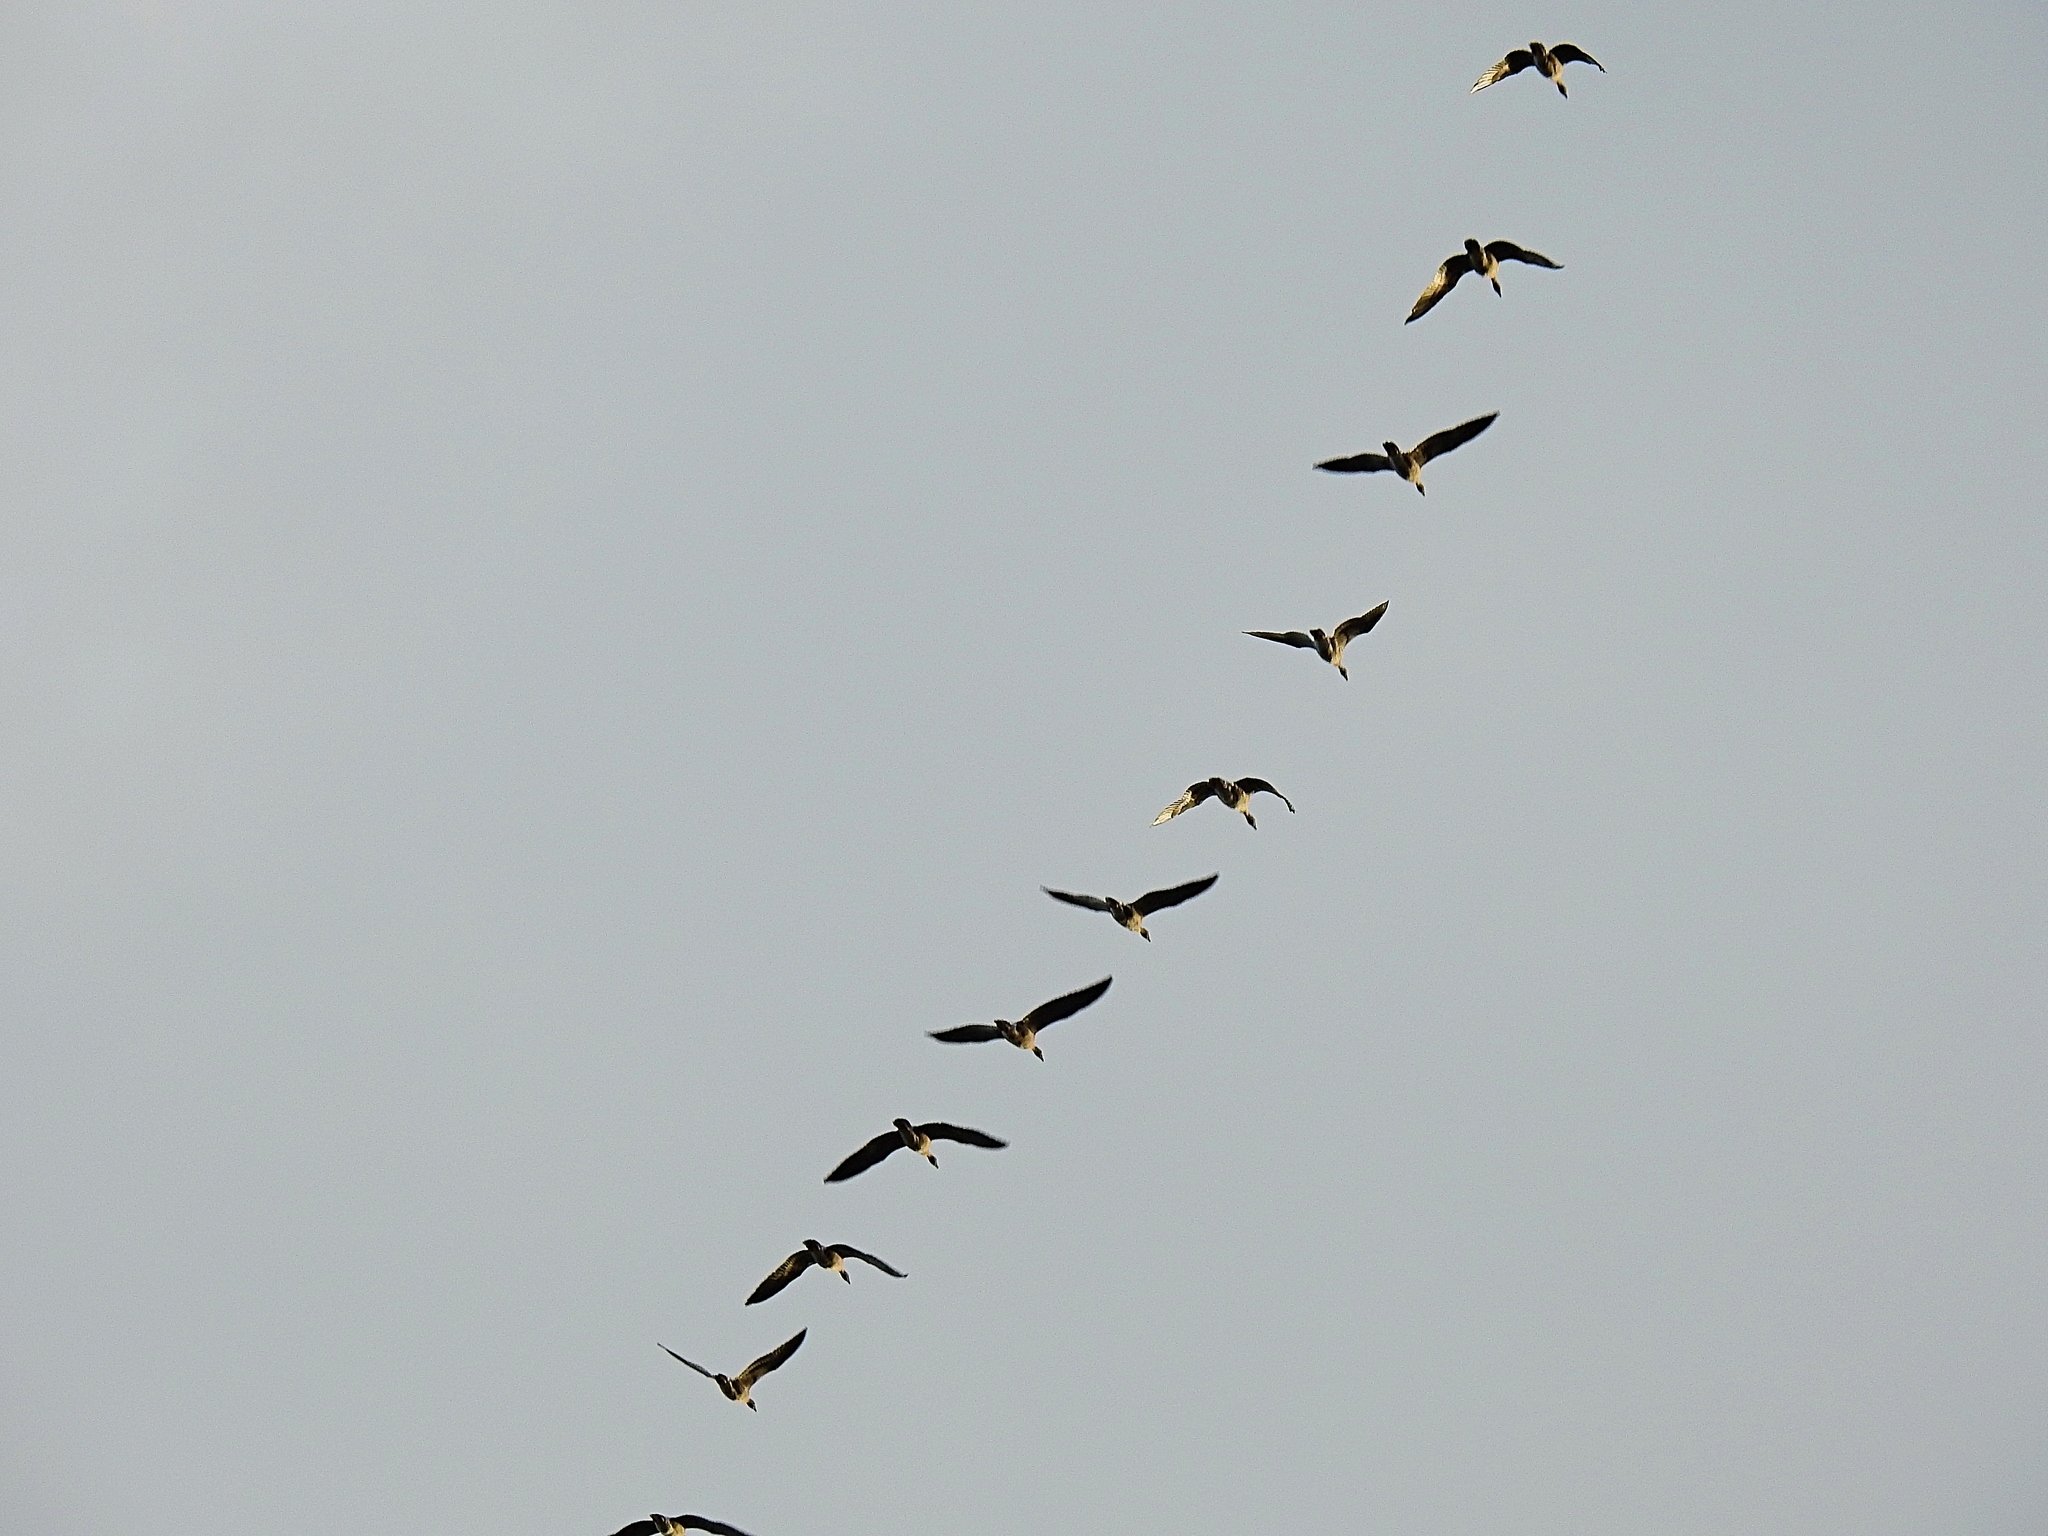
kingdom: Animalia
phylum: Chordata
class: Aves
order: Anseriformes
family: Anatidae
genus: Branta
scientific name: Branta canadensis
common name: Canada goose
